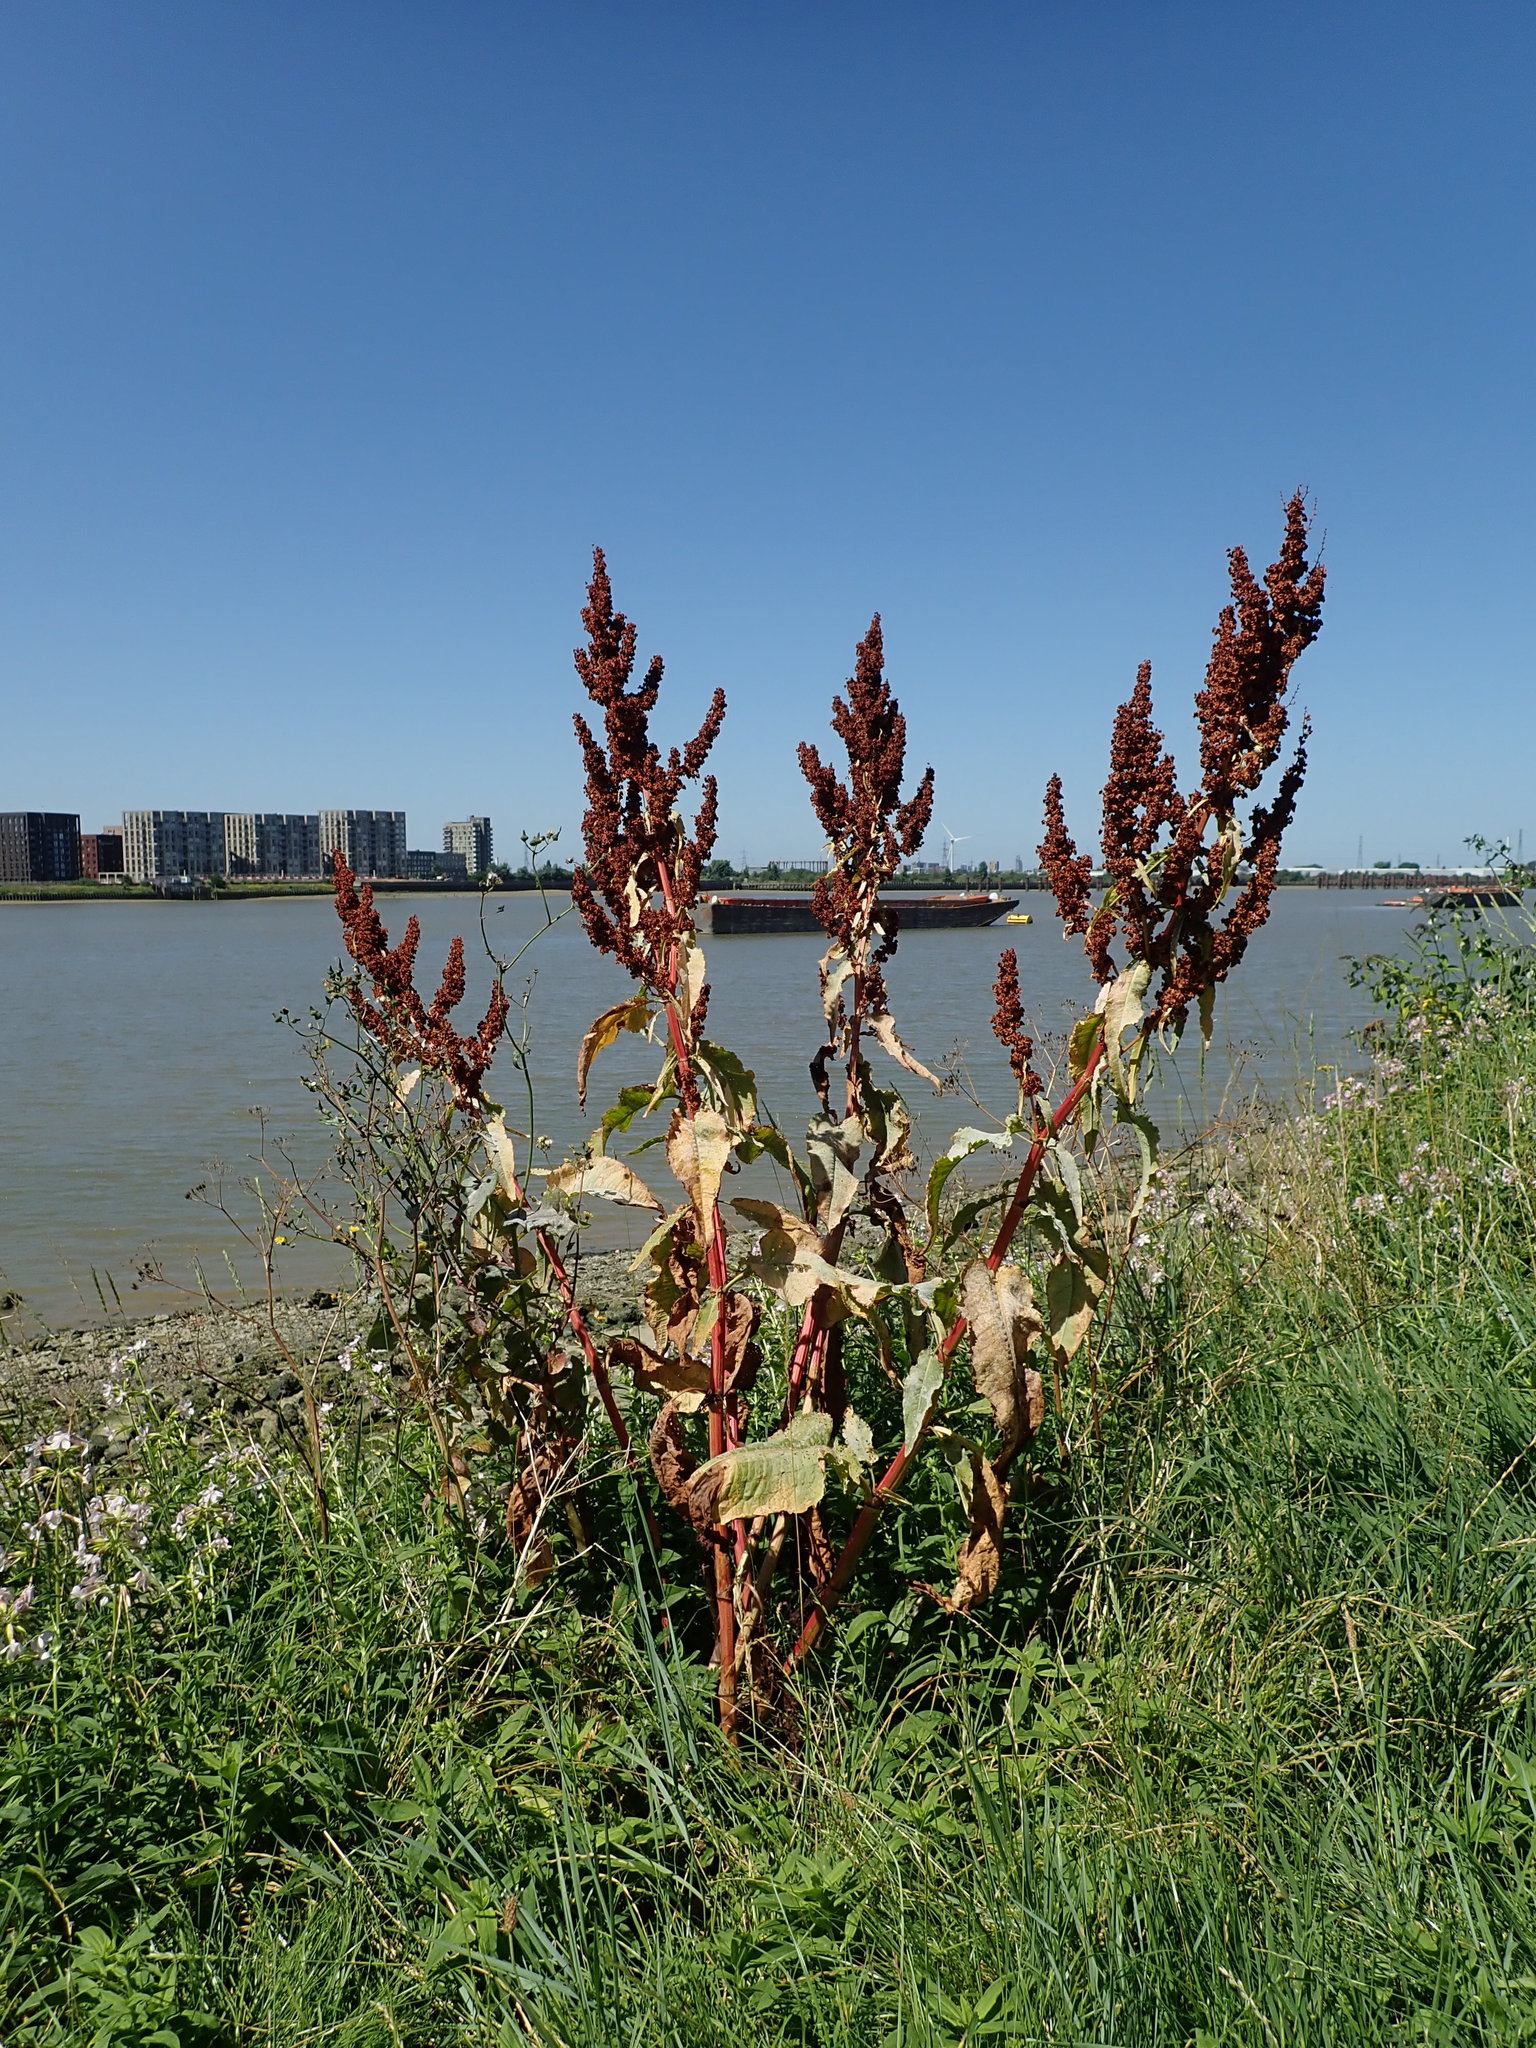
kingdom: Plantae
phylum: Tracheophyta
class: Magnoliopsida
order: Caryophyllales
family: Polygonaceae
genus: Rumex
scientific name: Rumex cristatus
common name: Greek dock
